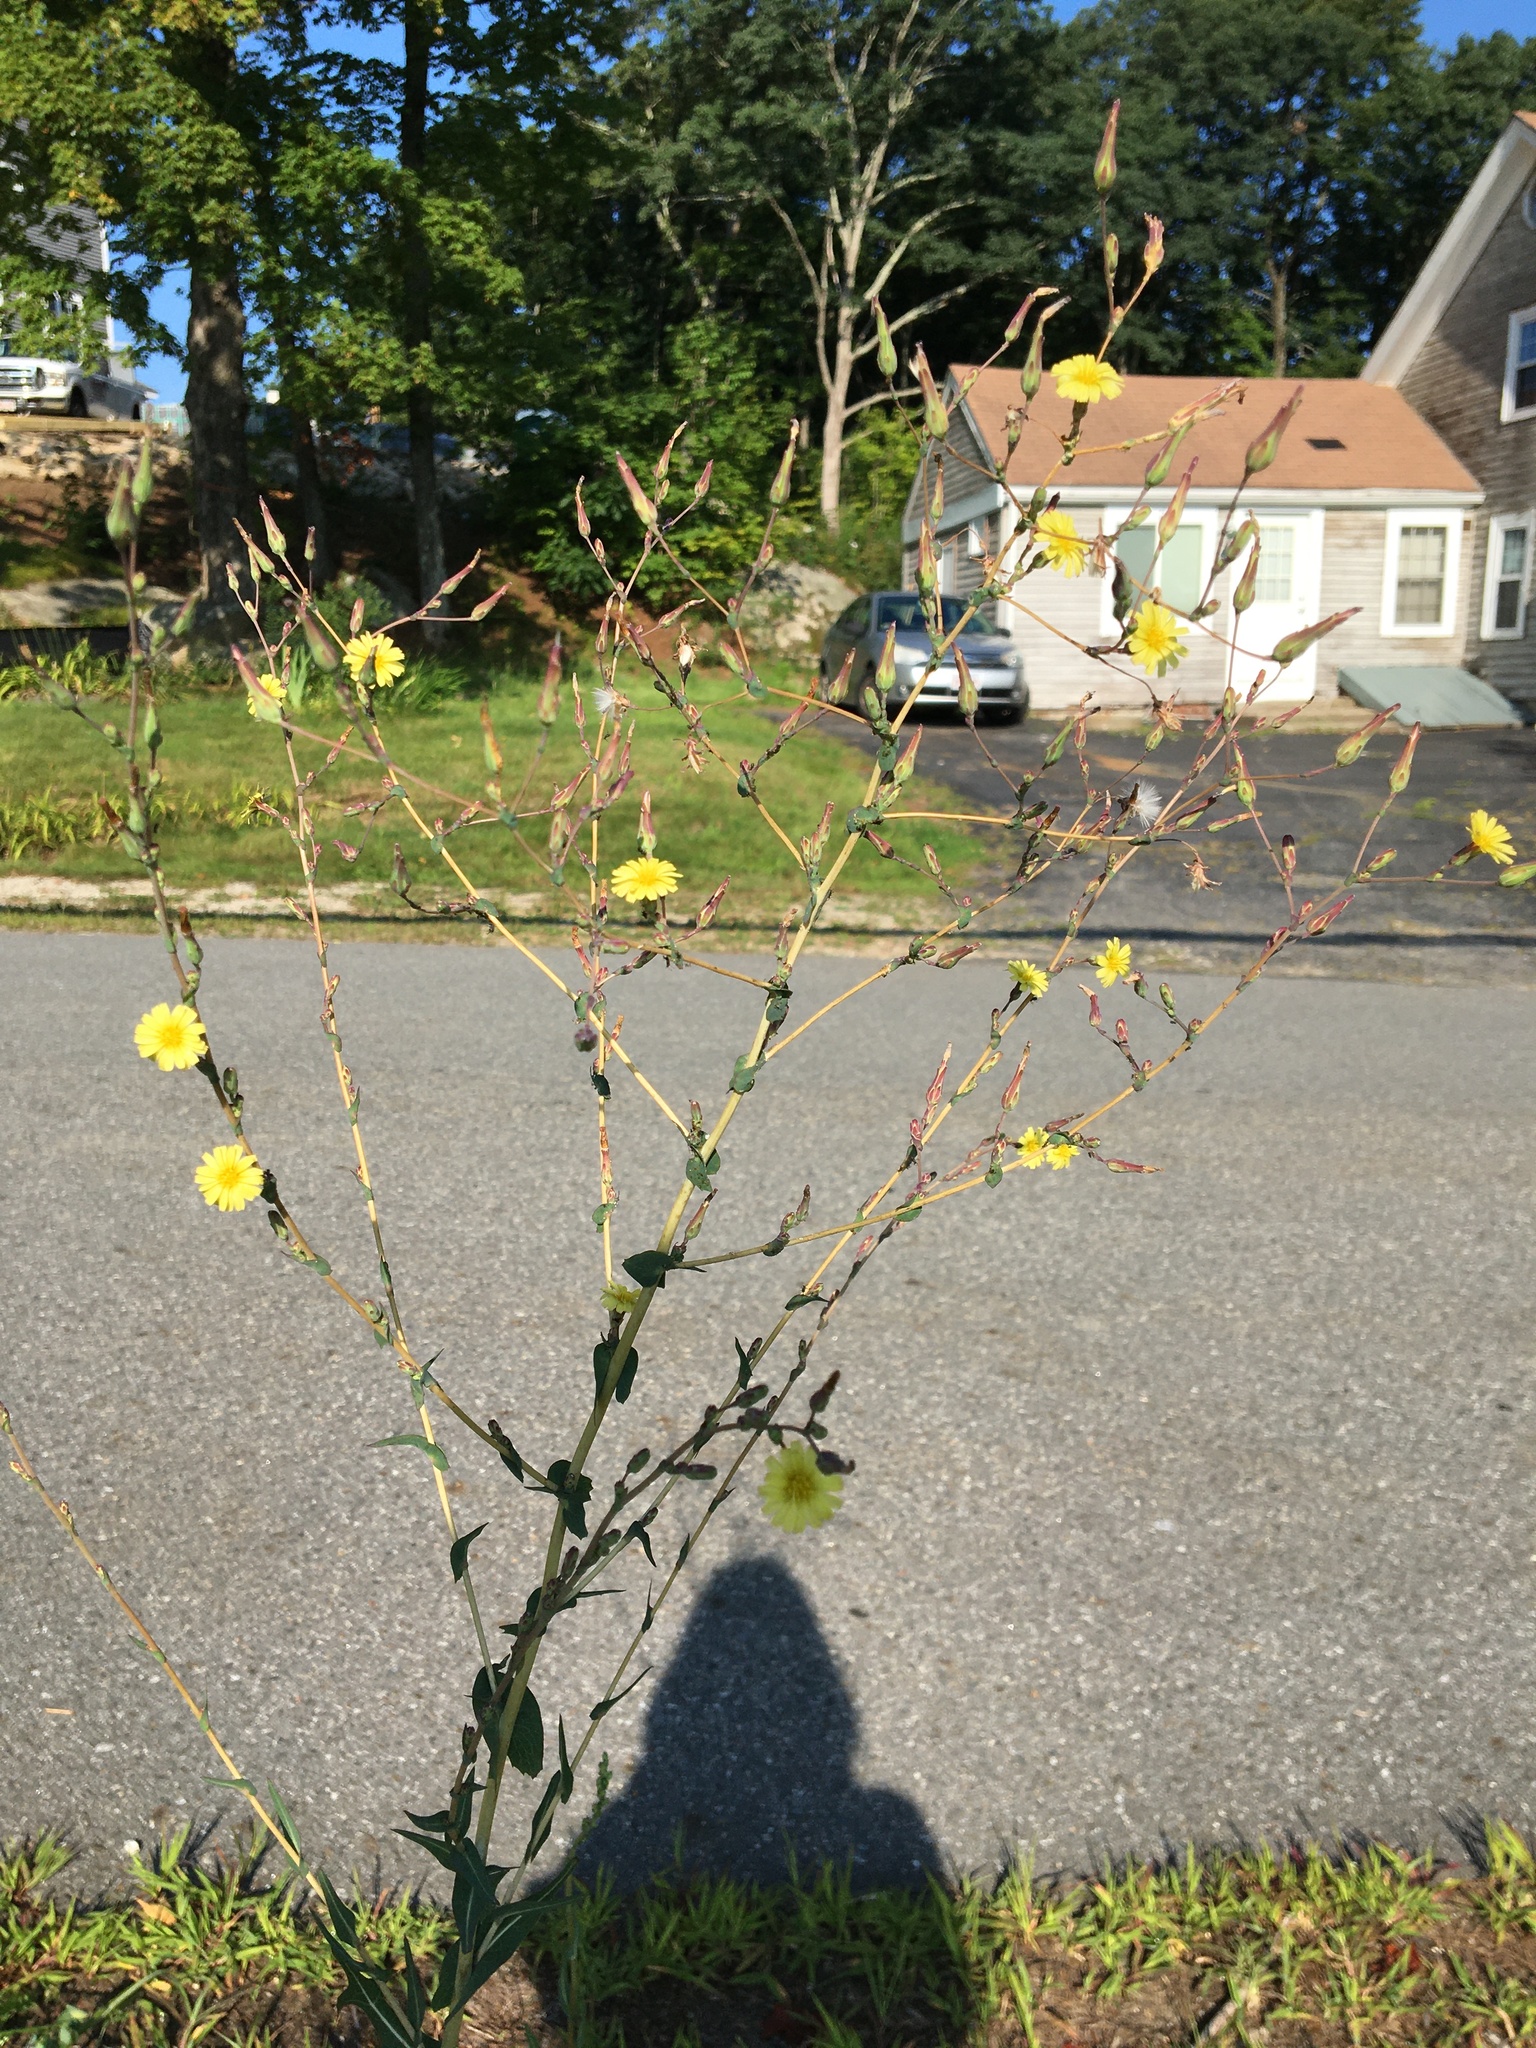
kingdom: Plantae
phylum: Tracheophyta
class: Magnoliopsida
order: Asterales
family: Asteraceae
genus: Lactuca
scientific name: Lactuca serriola
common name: Prickly lettuce
